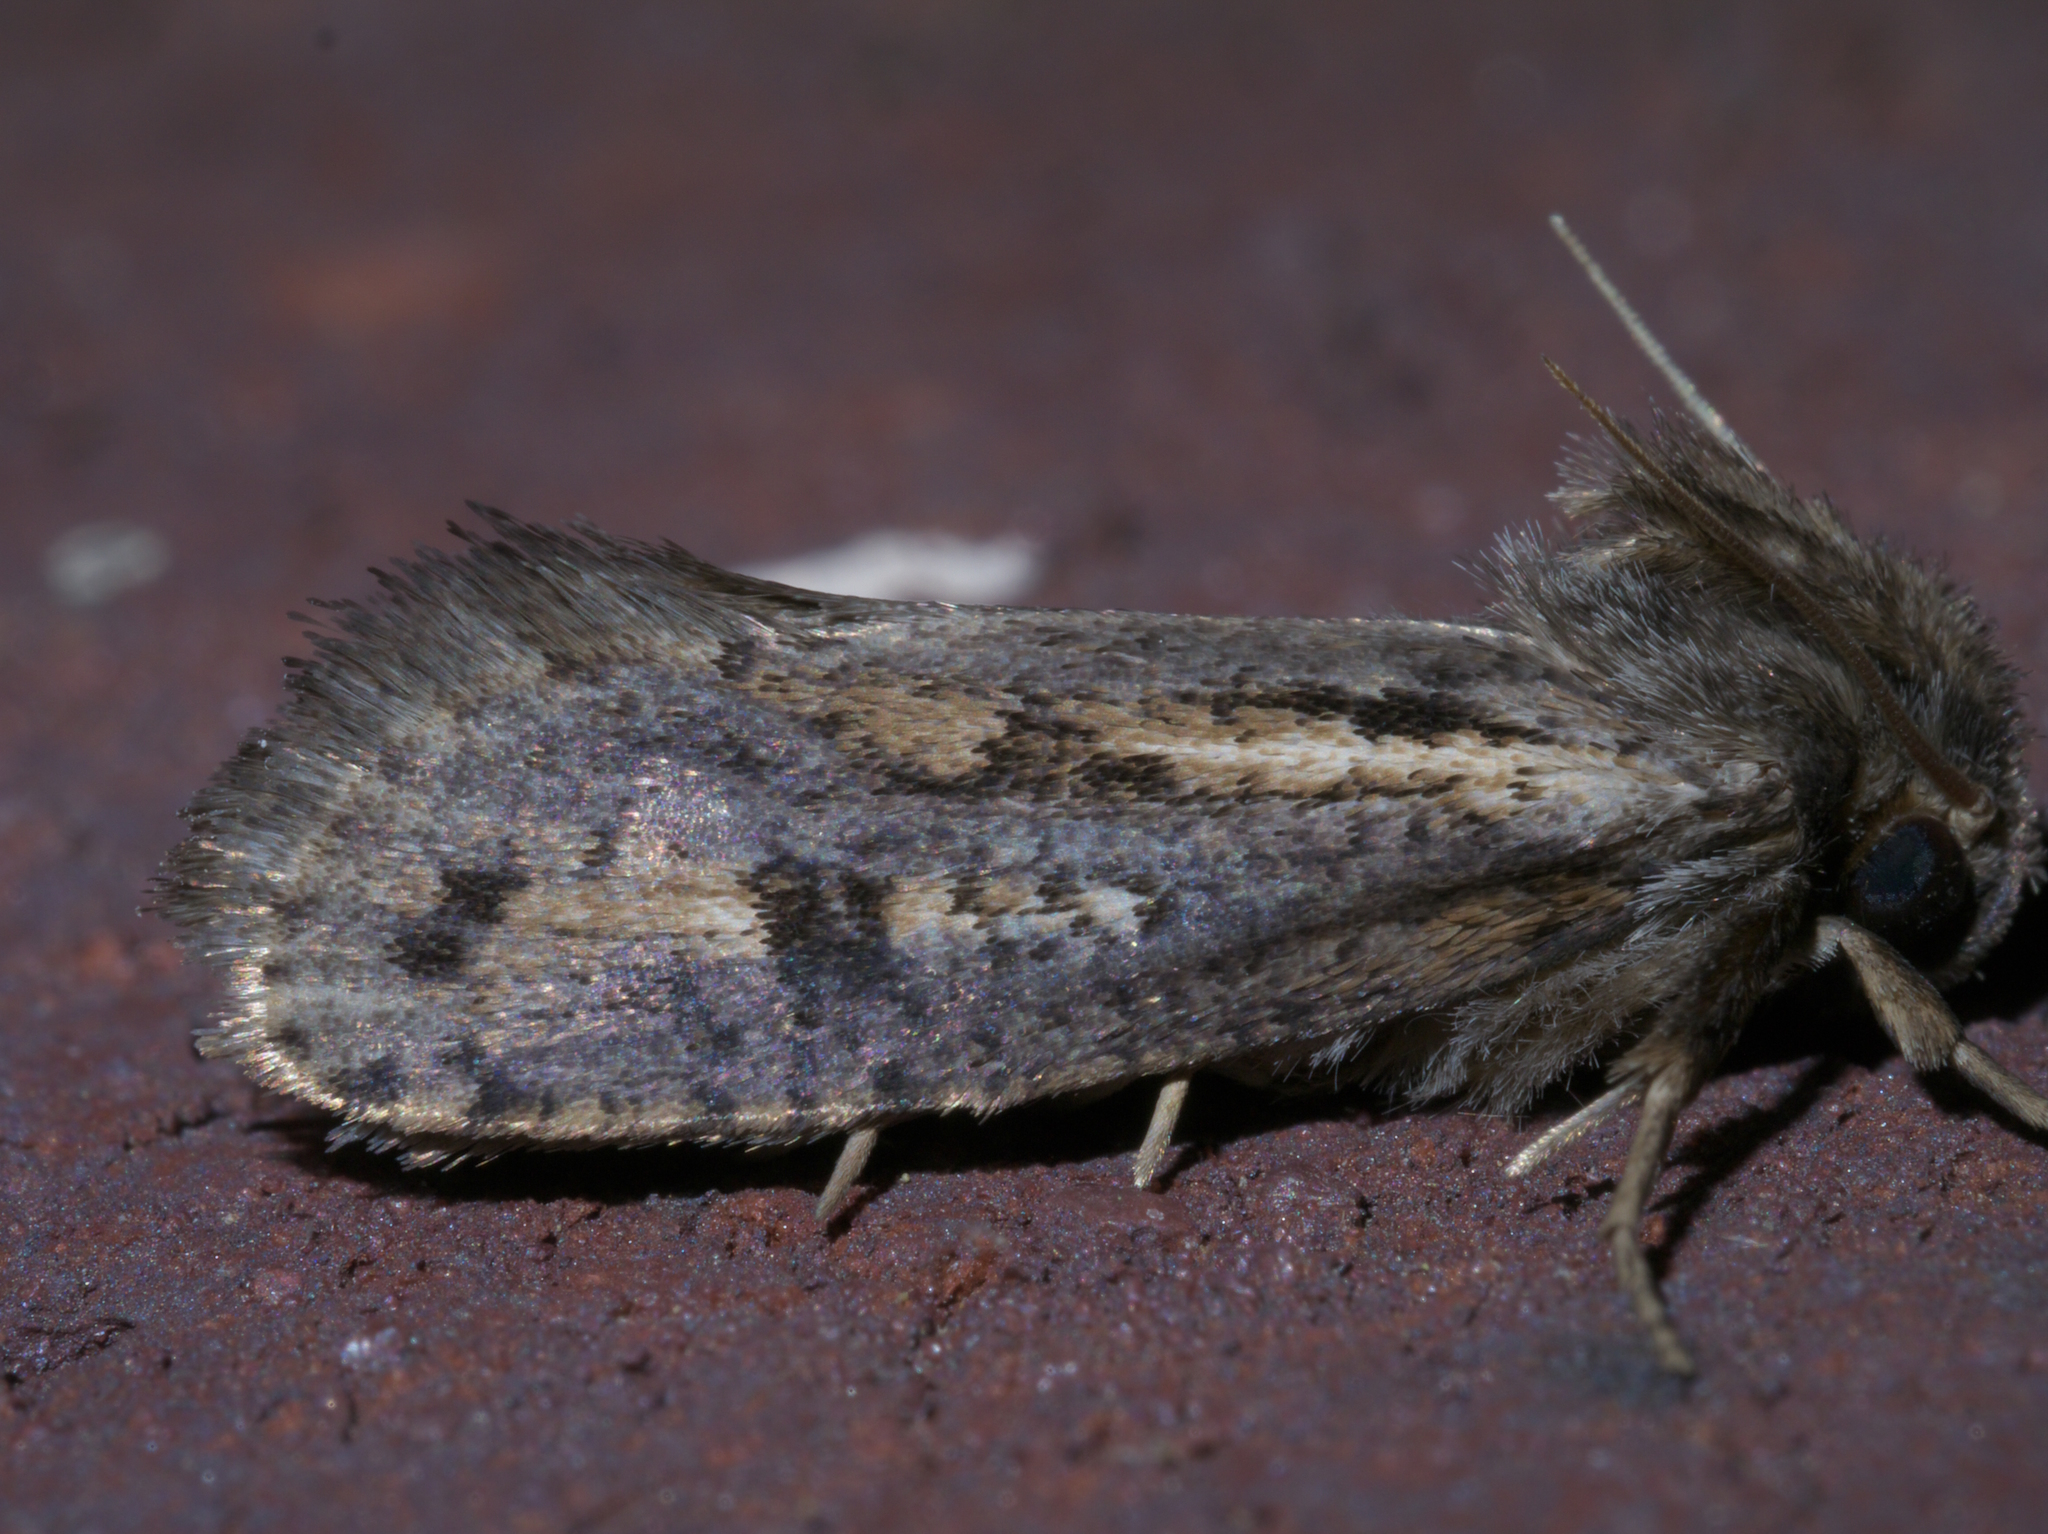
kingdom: Animalia
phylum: Arthropoda
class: Insecta
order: Lepidoptera
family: Tineidae
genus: Acrolophus
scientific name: Acrolophus popeanella
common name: Clemens' grass tubeworm moth
